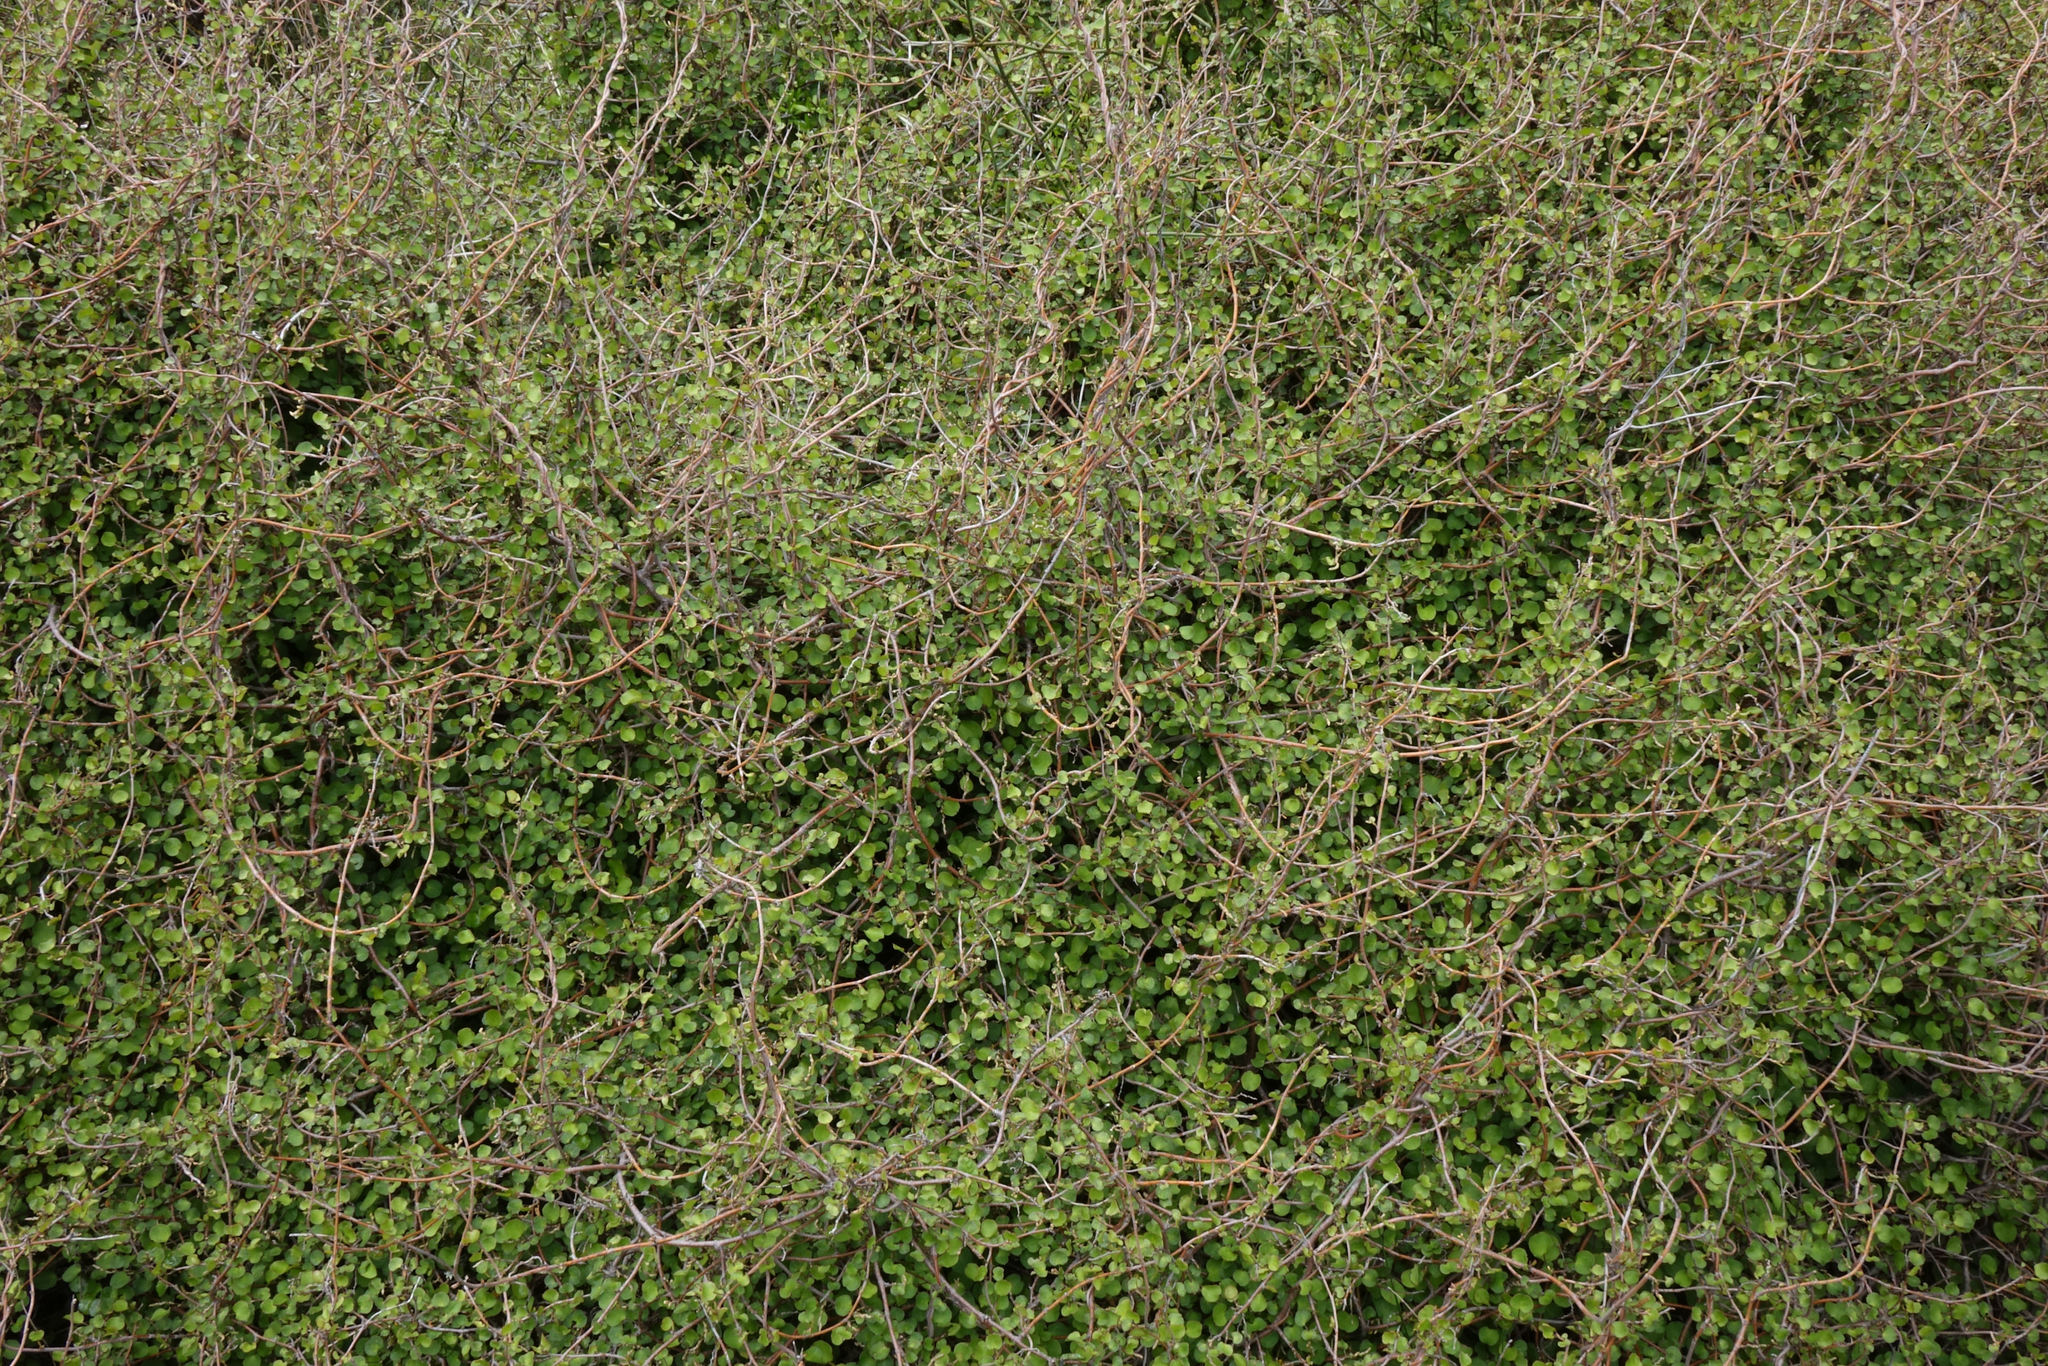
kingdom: Plantae
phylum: Tracheophyta
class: Magnoliopsida
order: Caryophyllales
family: Polygonaceae
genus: Muehlenbeckia
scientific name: Muehlenbeckia complexa
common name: Wireplant
